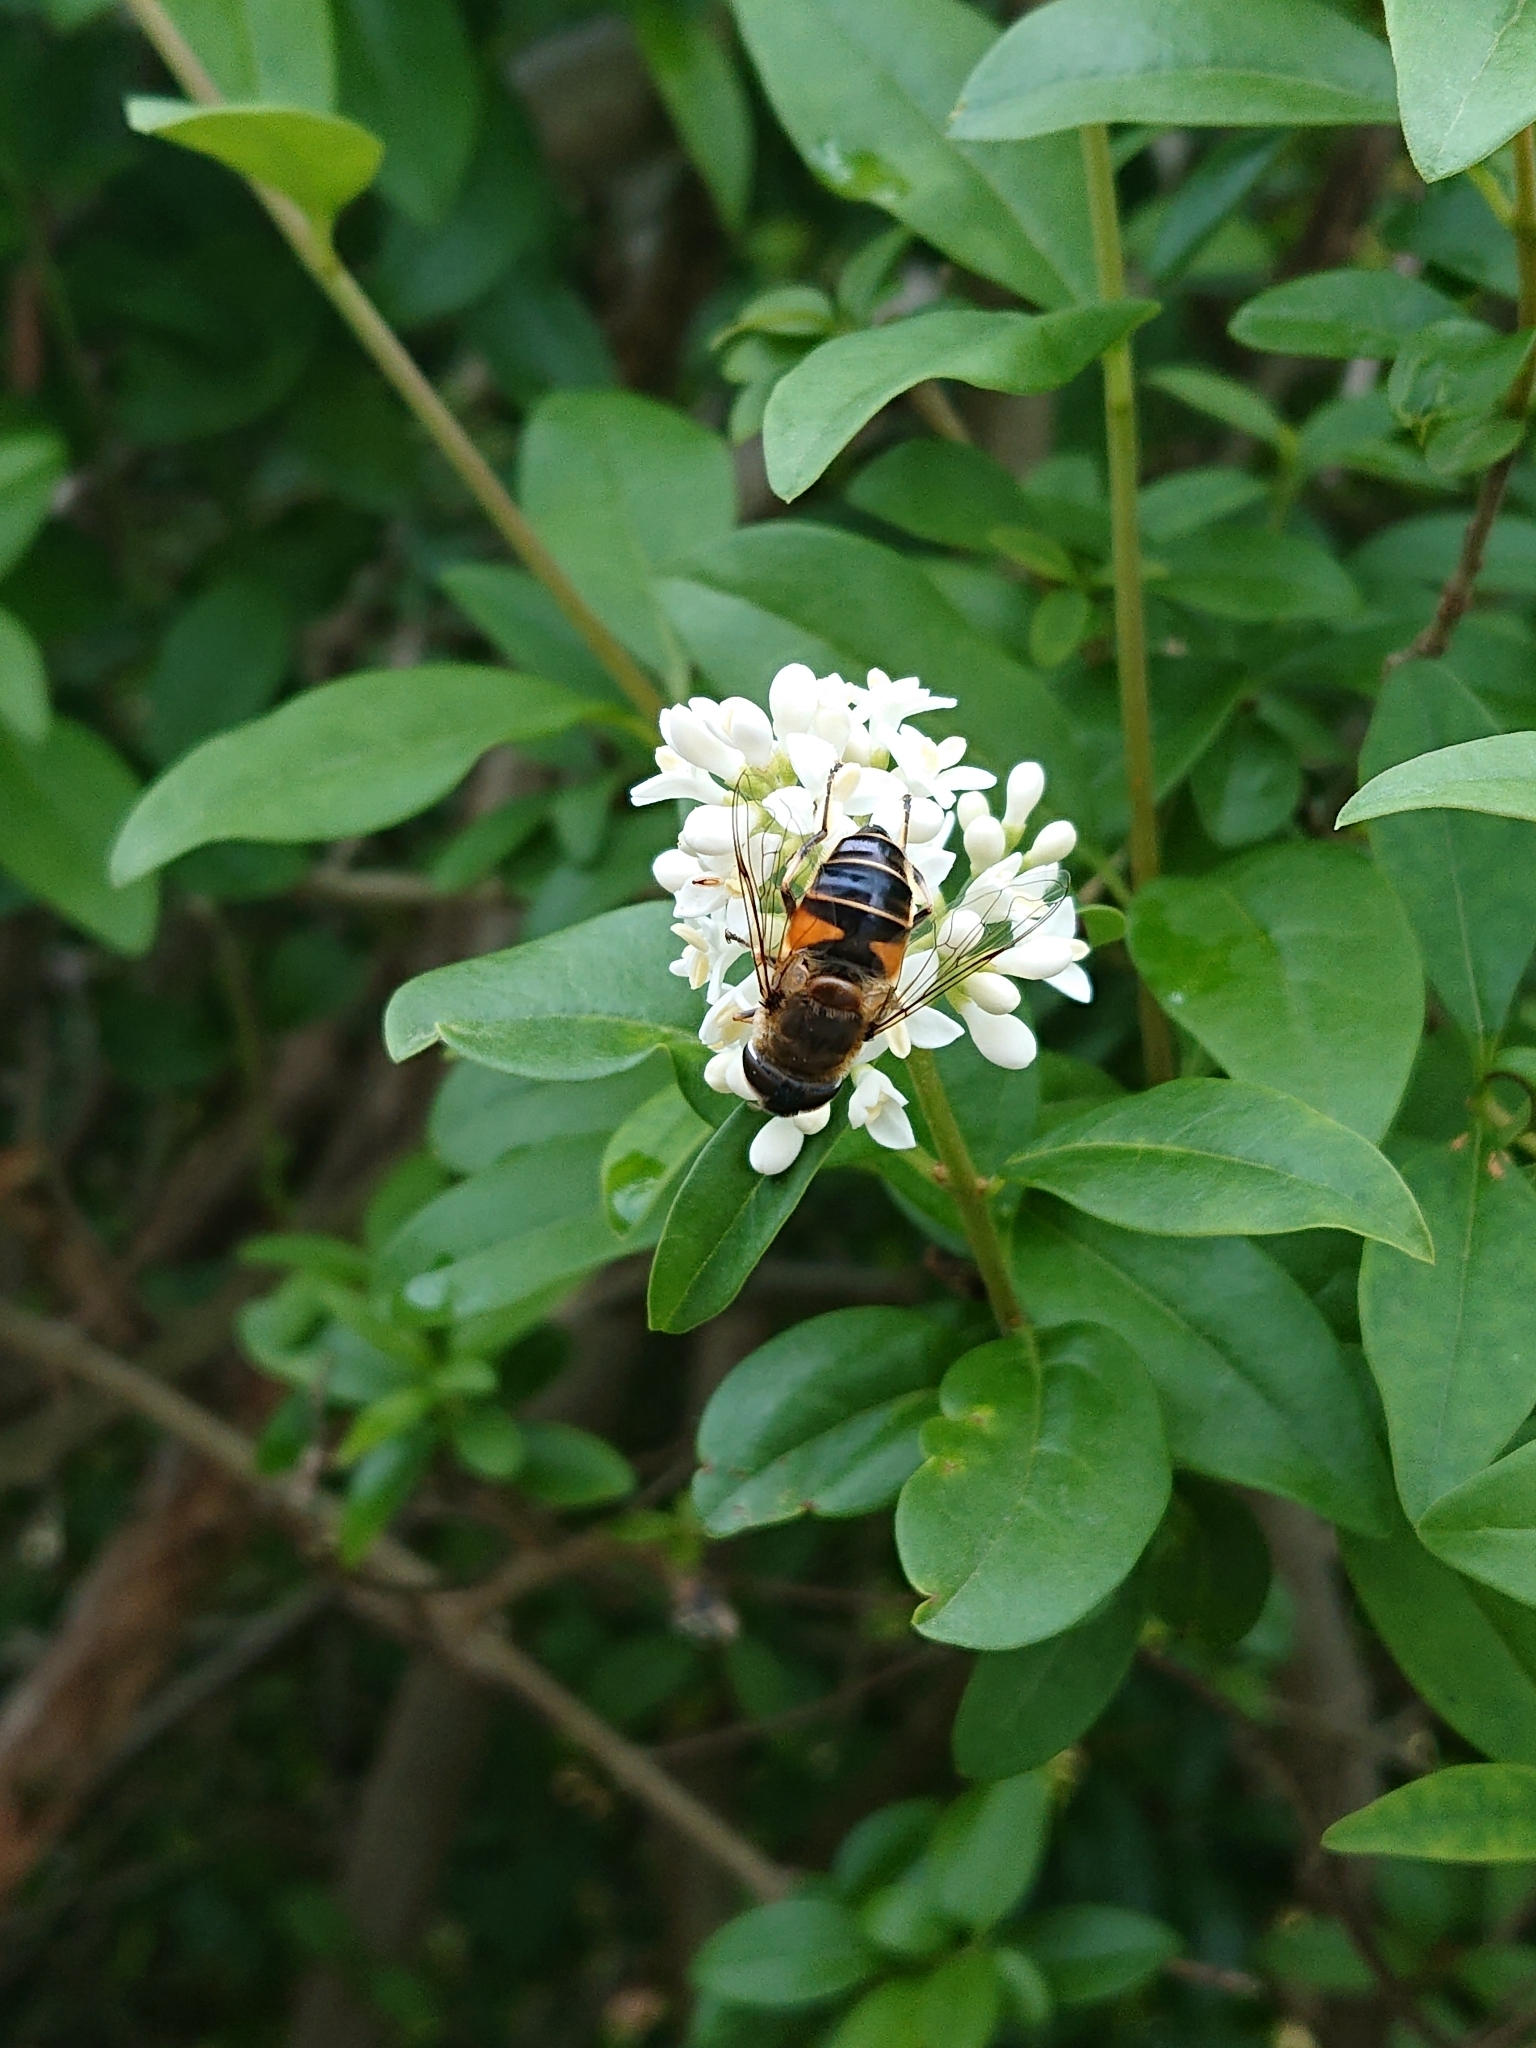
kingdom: Animalia
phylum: Arthropoda
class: Insecta
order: Diptera
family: Syrphidae
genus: Eristalis
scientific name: Eristalis pertinax
